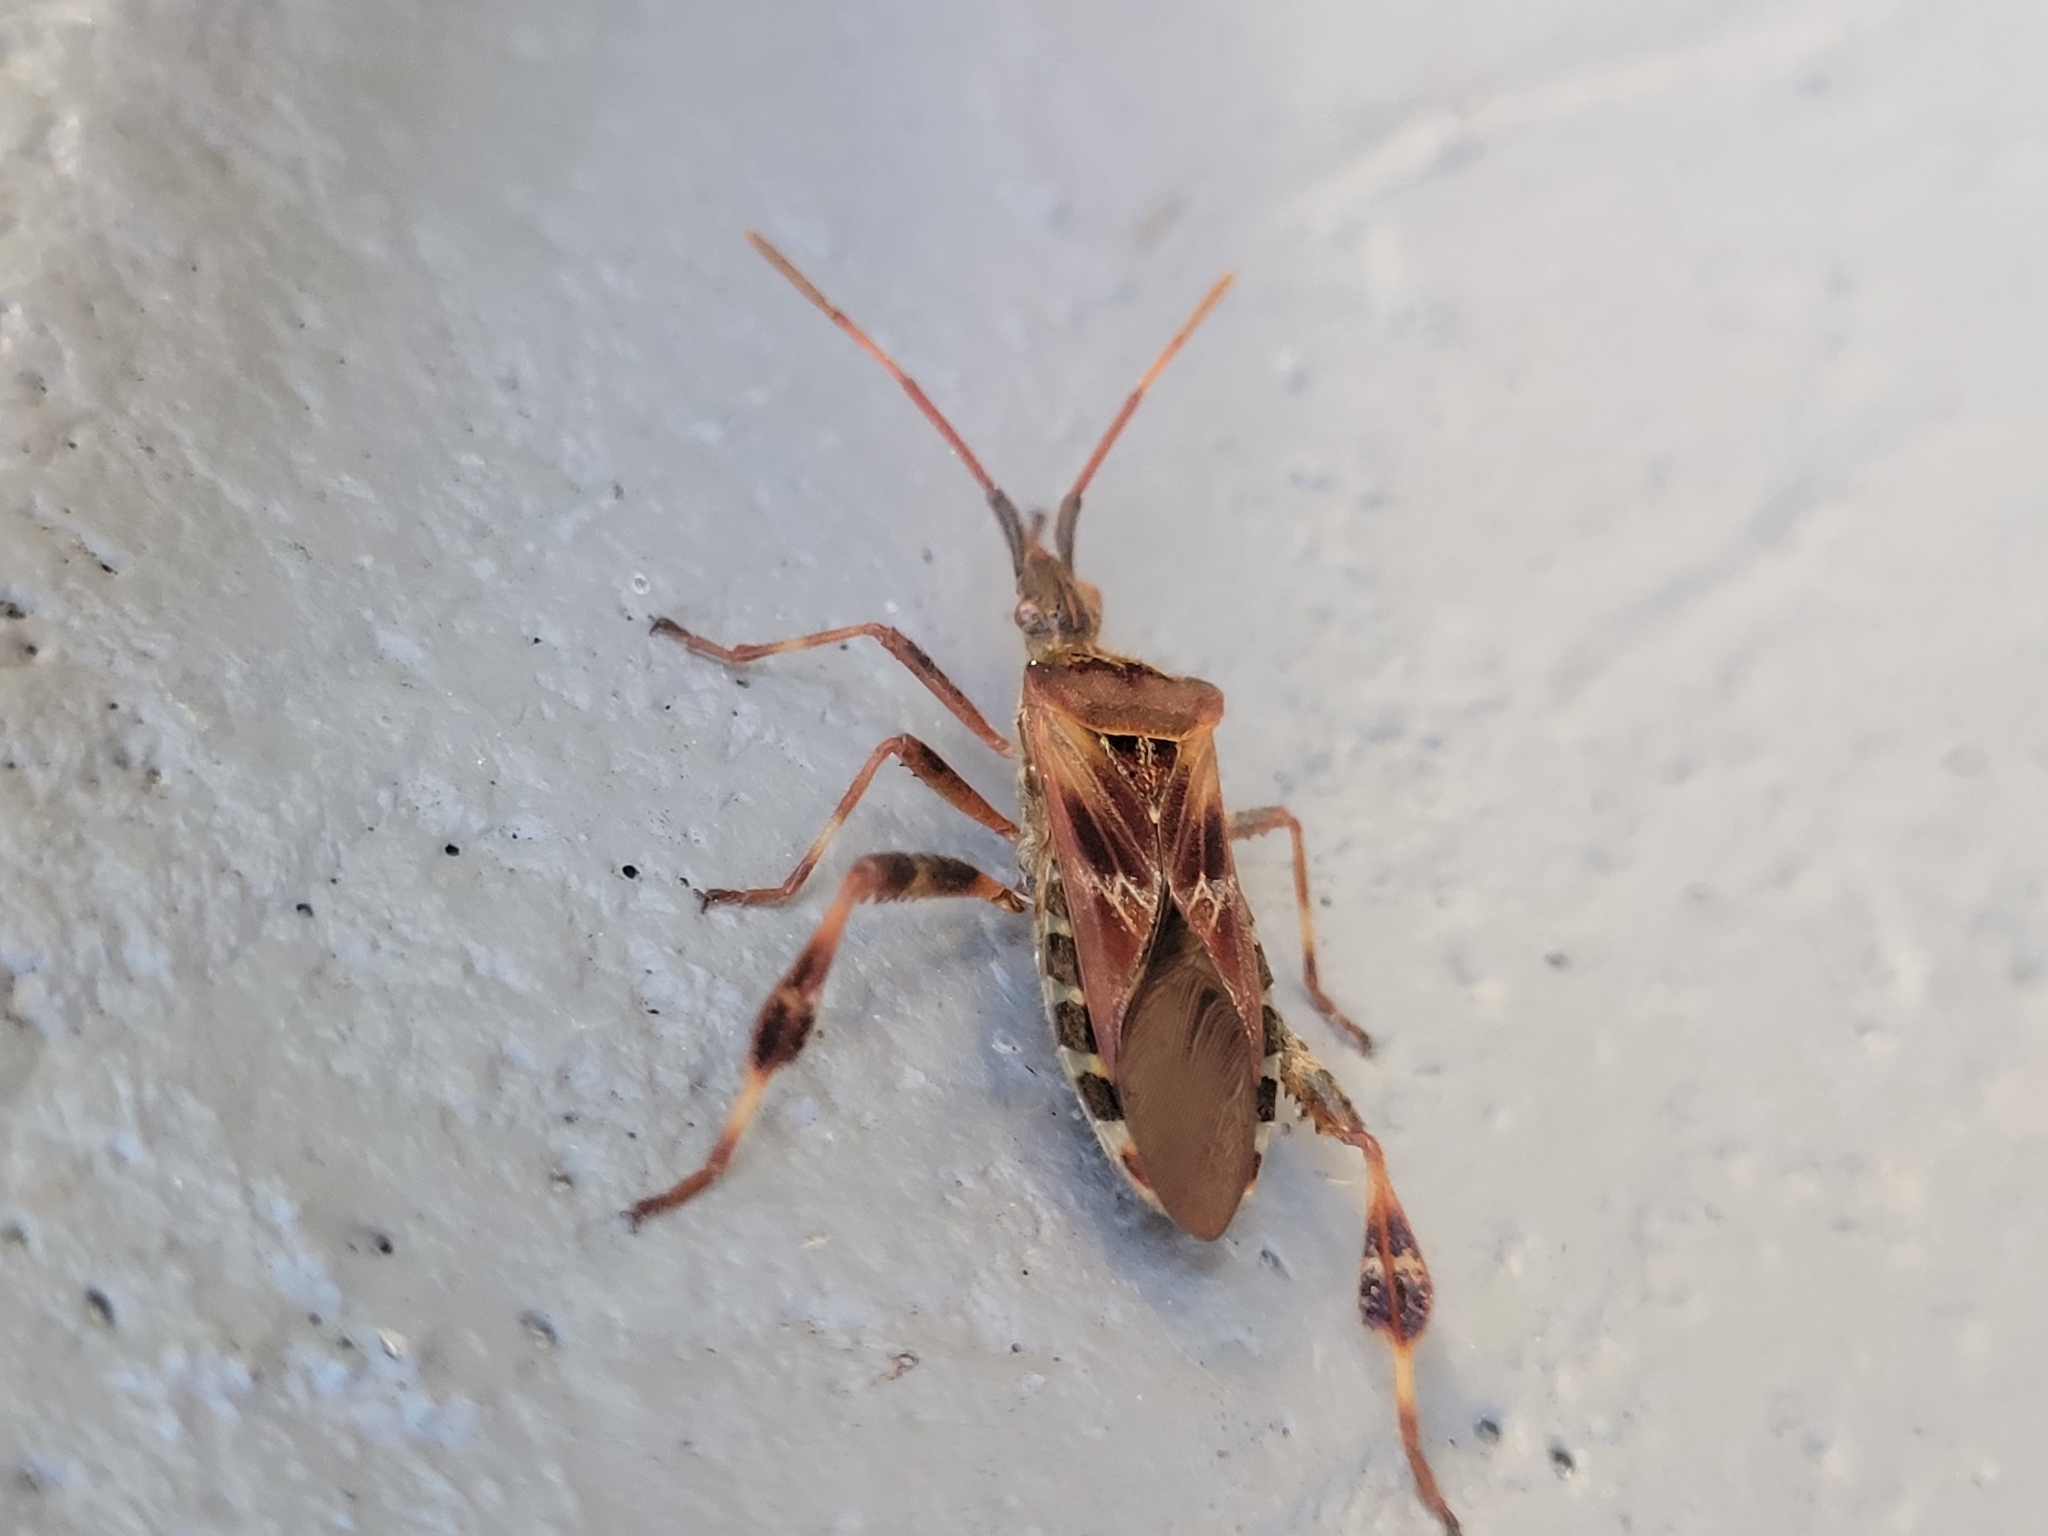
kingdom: Animalia
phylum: Arthropoda
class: Insecta
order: Hemiptera
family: Coreidae
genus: Leptoglossus
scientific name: Leptoglossus occidentalis
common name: Western conifer-seed bug
